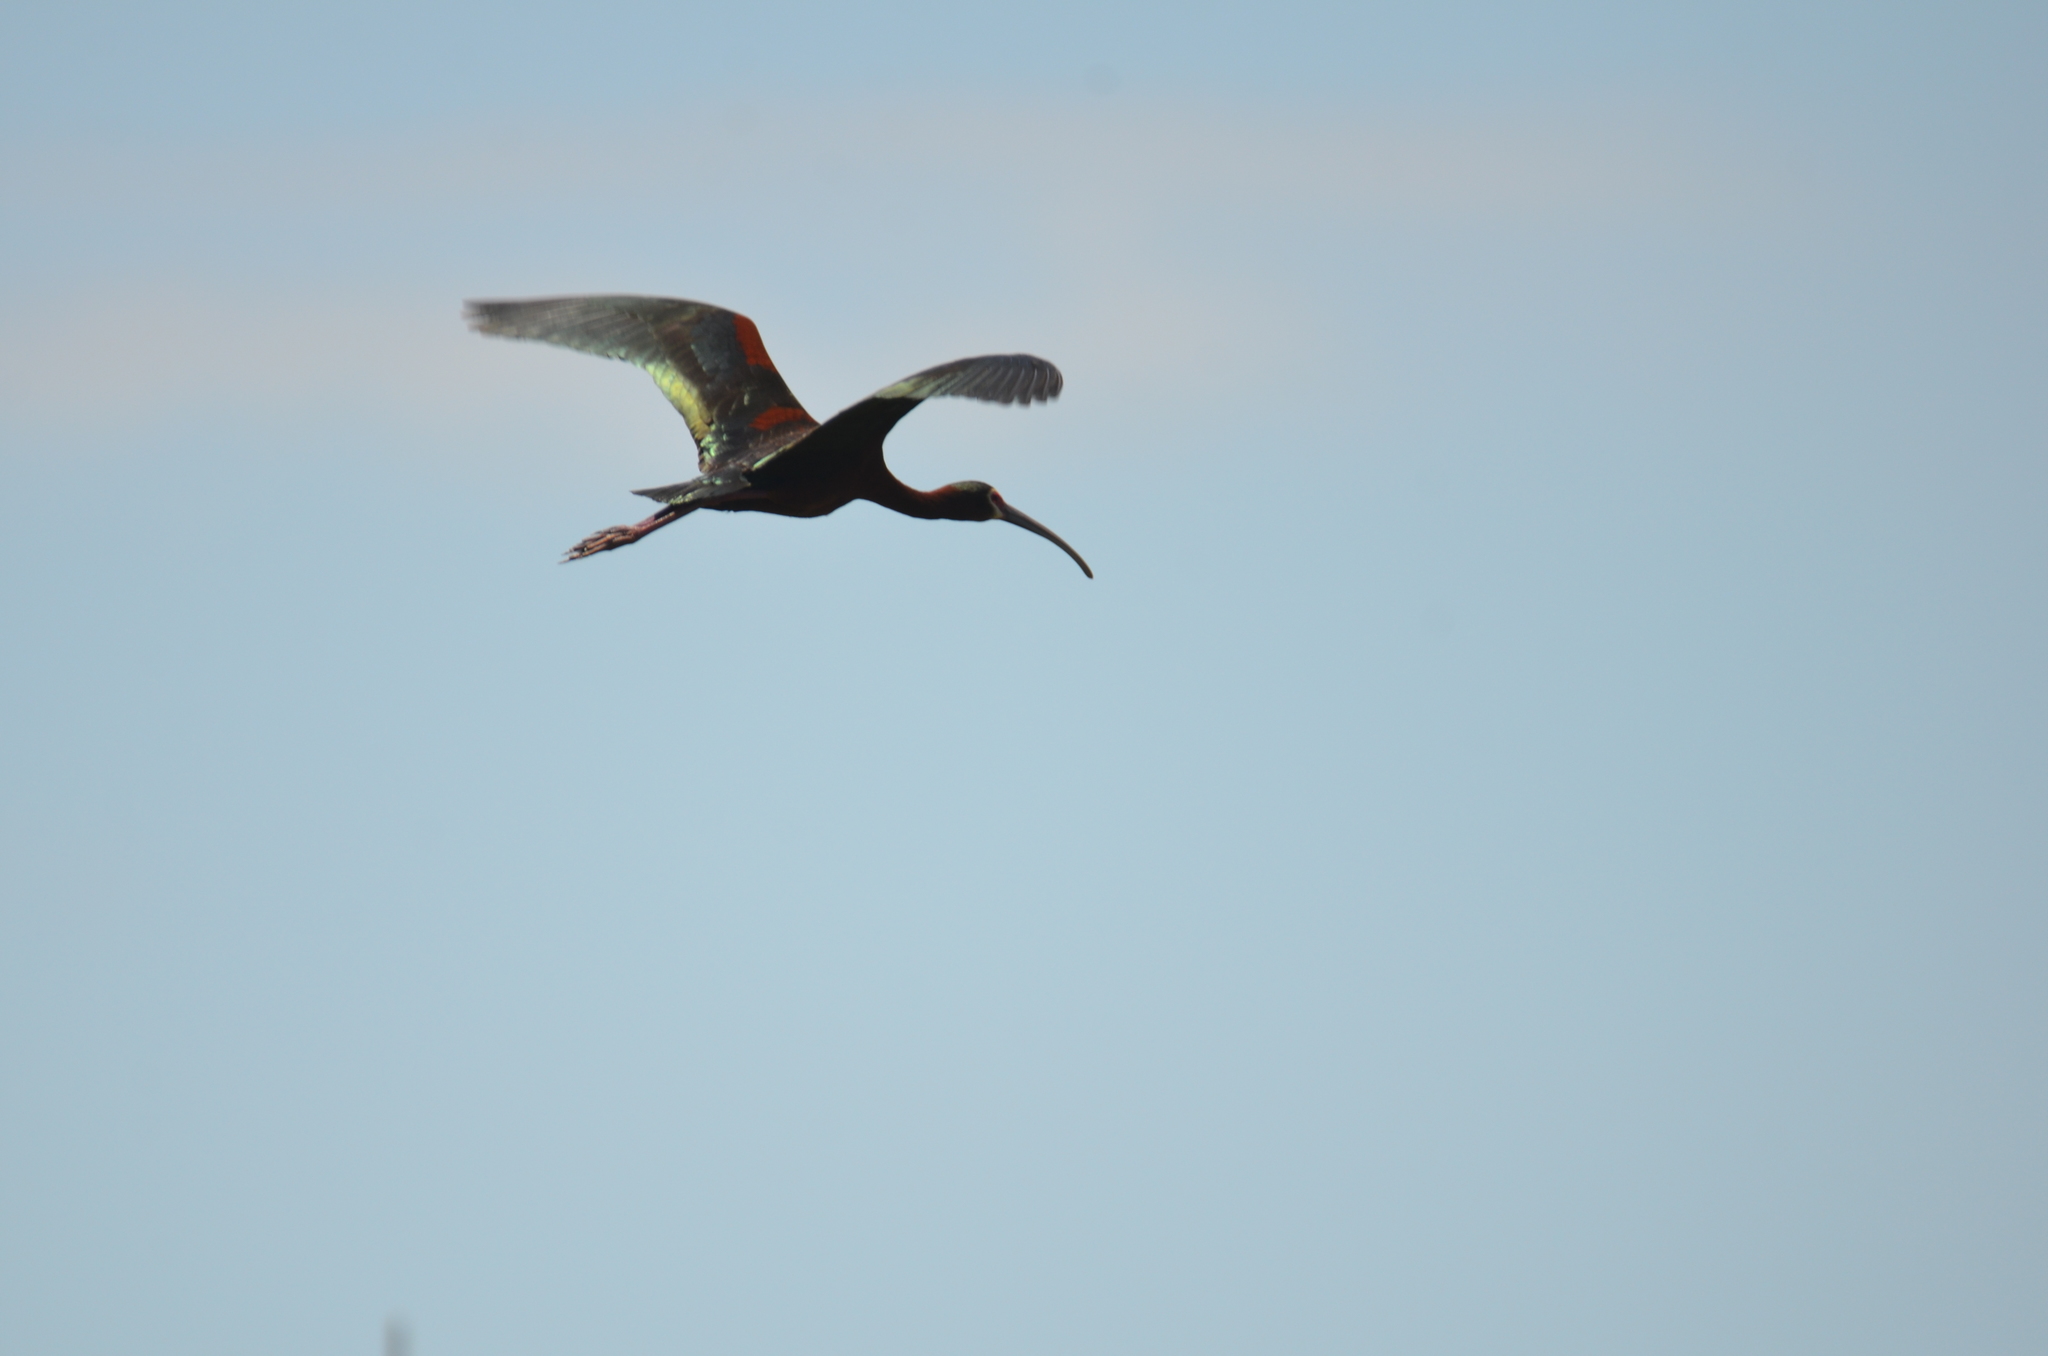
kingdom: Animalia
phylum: Chordata
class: Aves
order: Pelecaniformes
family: Threskiornithidae
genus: Plegadis
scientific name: Plegadis chihi
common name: White-faced ibis
